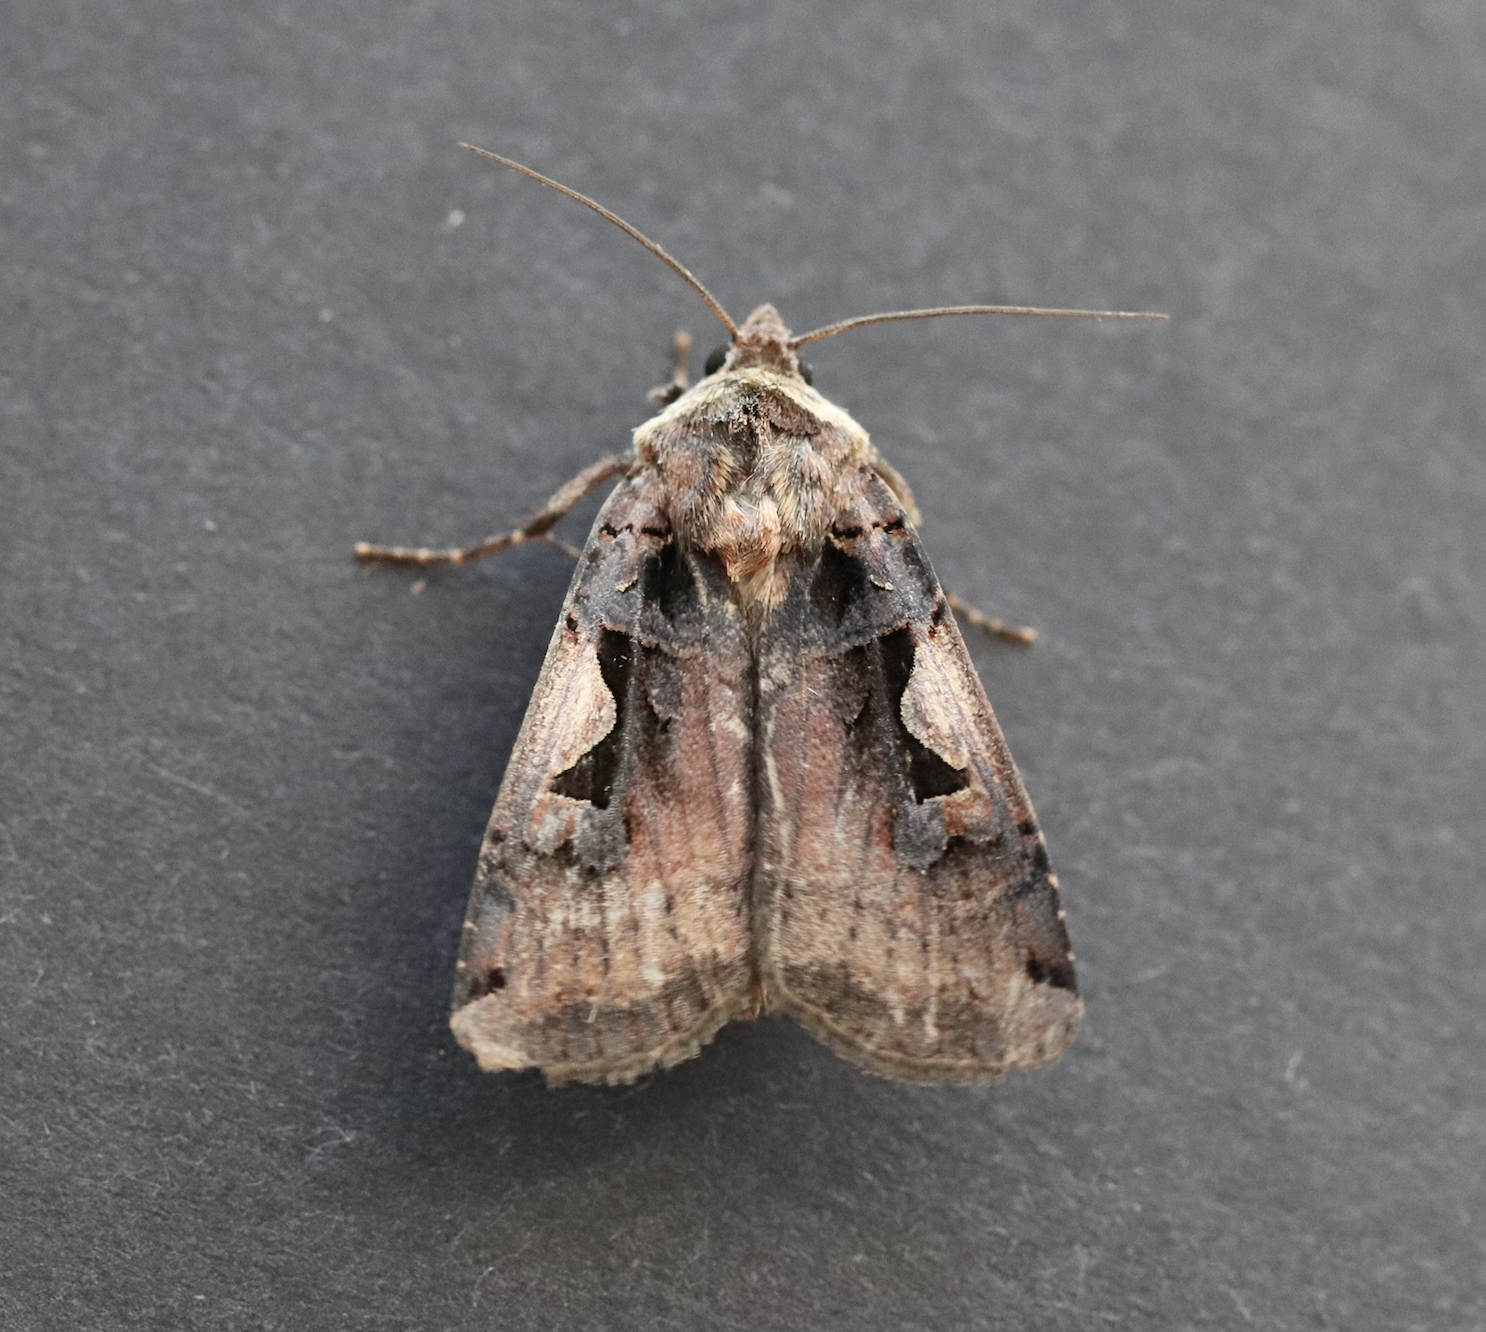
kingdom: Animalia
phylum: Arthropoda
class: Insecta
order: Lepidoptera
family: Noctuidae
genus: Xestia
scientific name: Xestia c-nigrum
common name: Setaceous hebrew character
